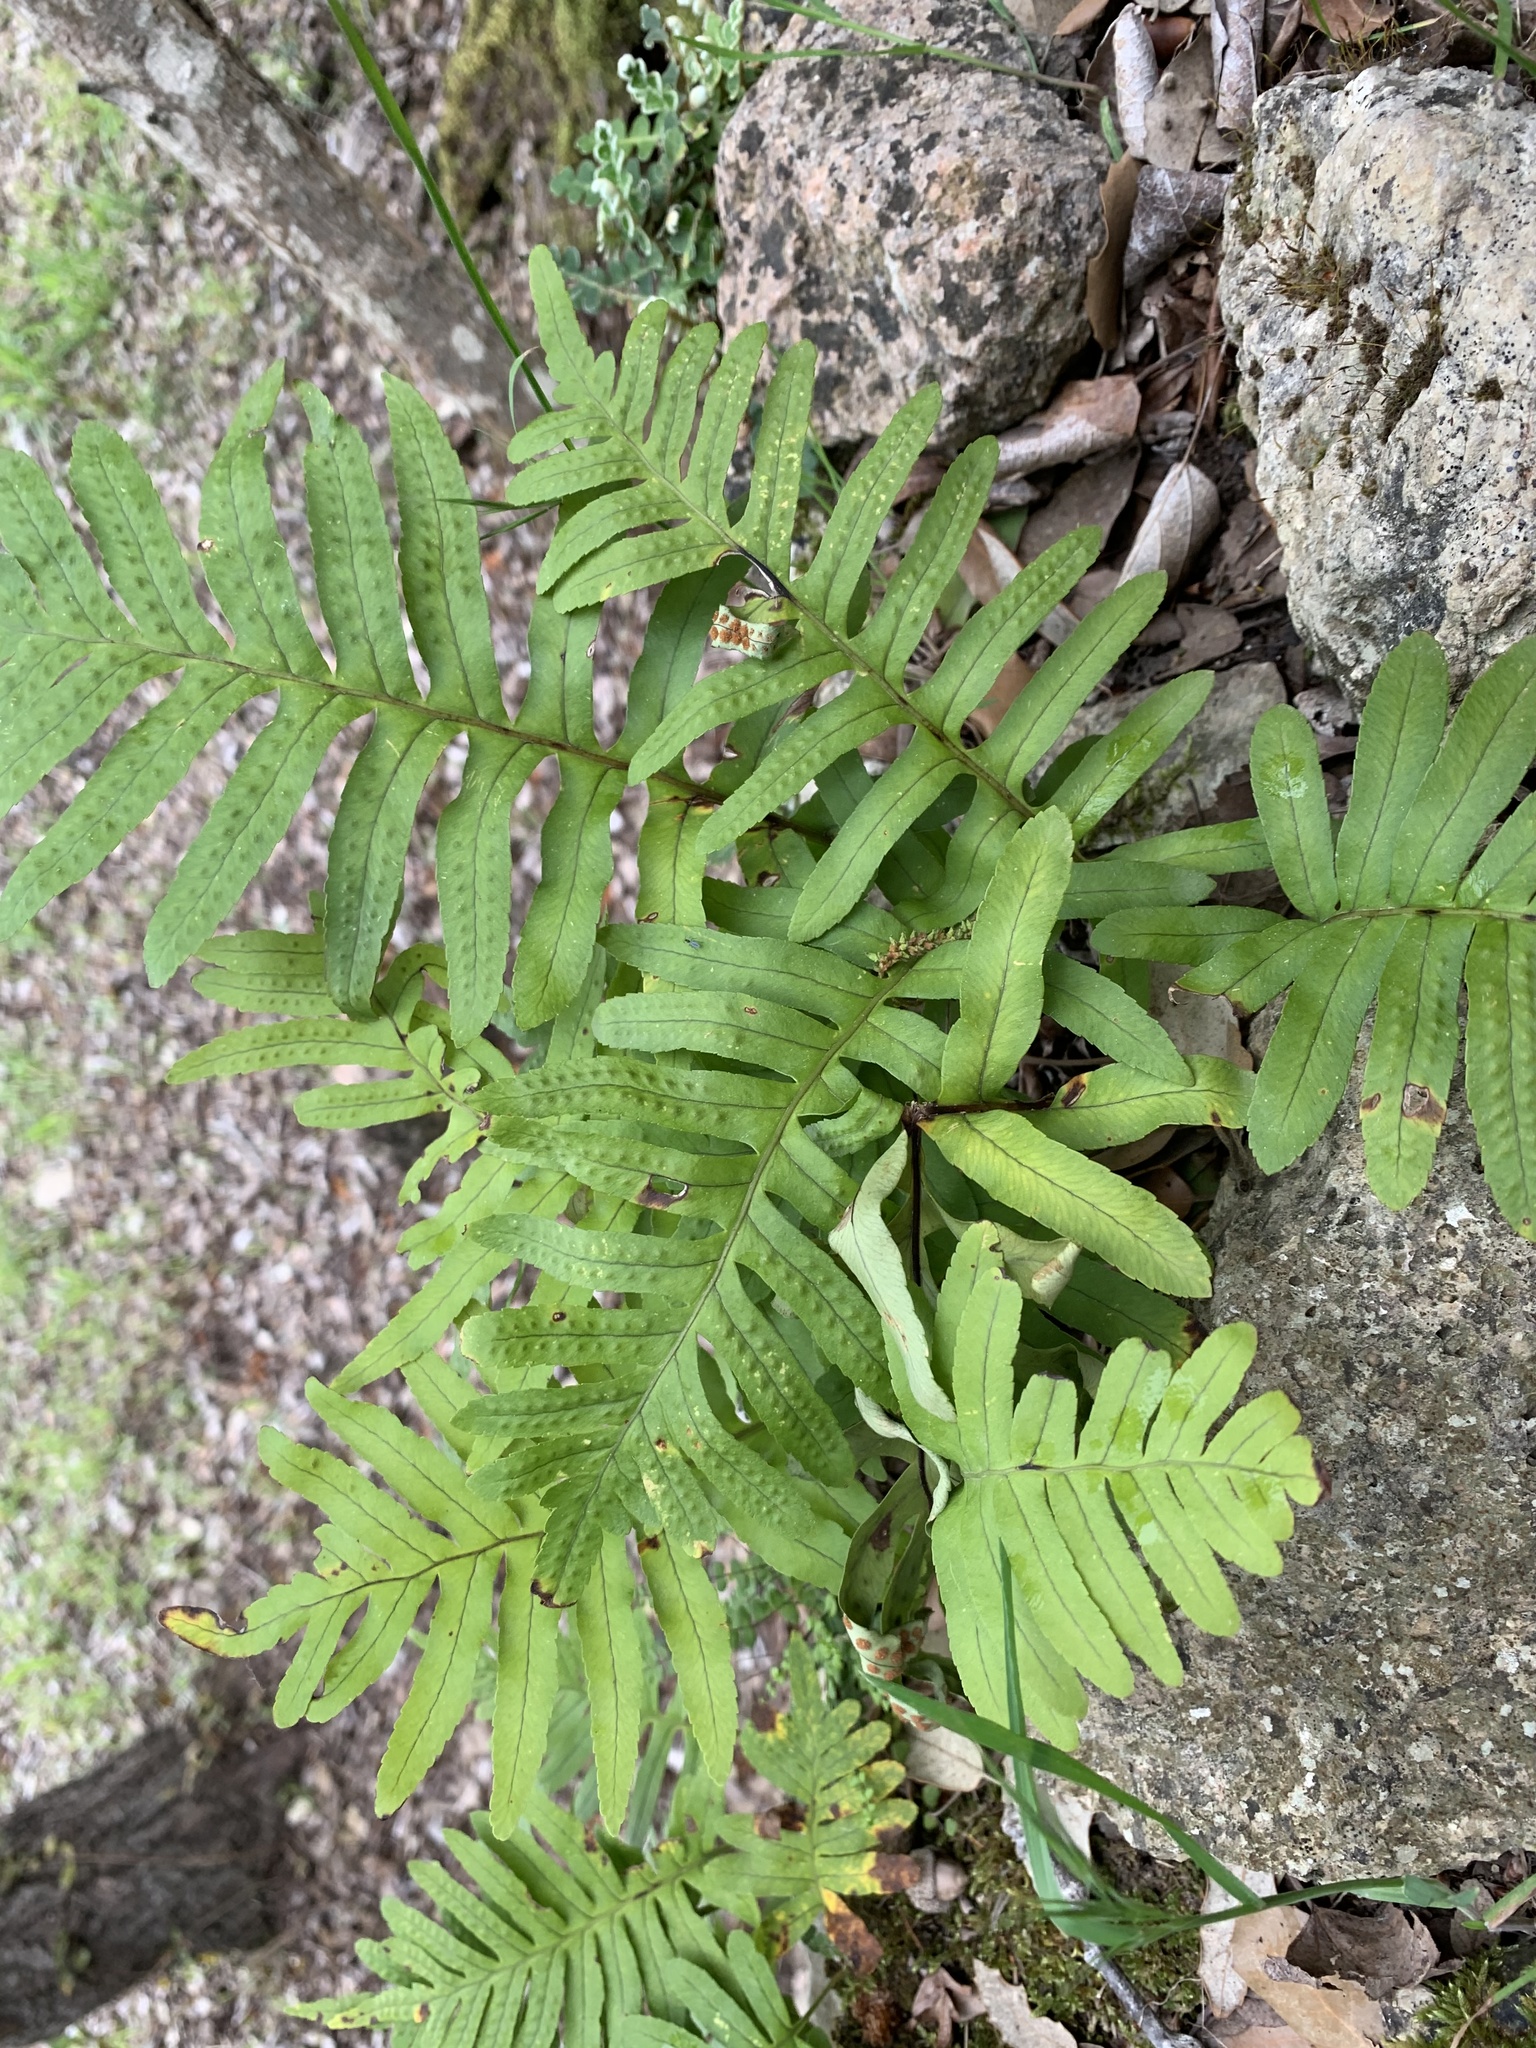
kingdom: Plantae
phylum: Tracheophyta
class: Polypodiopsida
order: Polypodiales
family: Polypodiaceae
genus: Polypodium
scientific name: Polypodium cambricum
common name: Southern polypody
